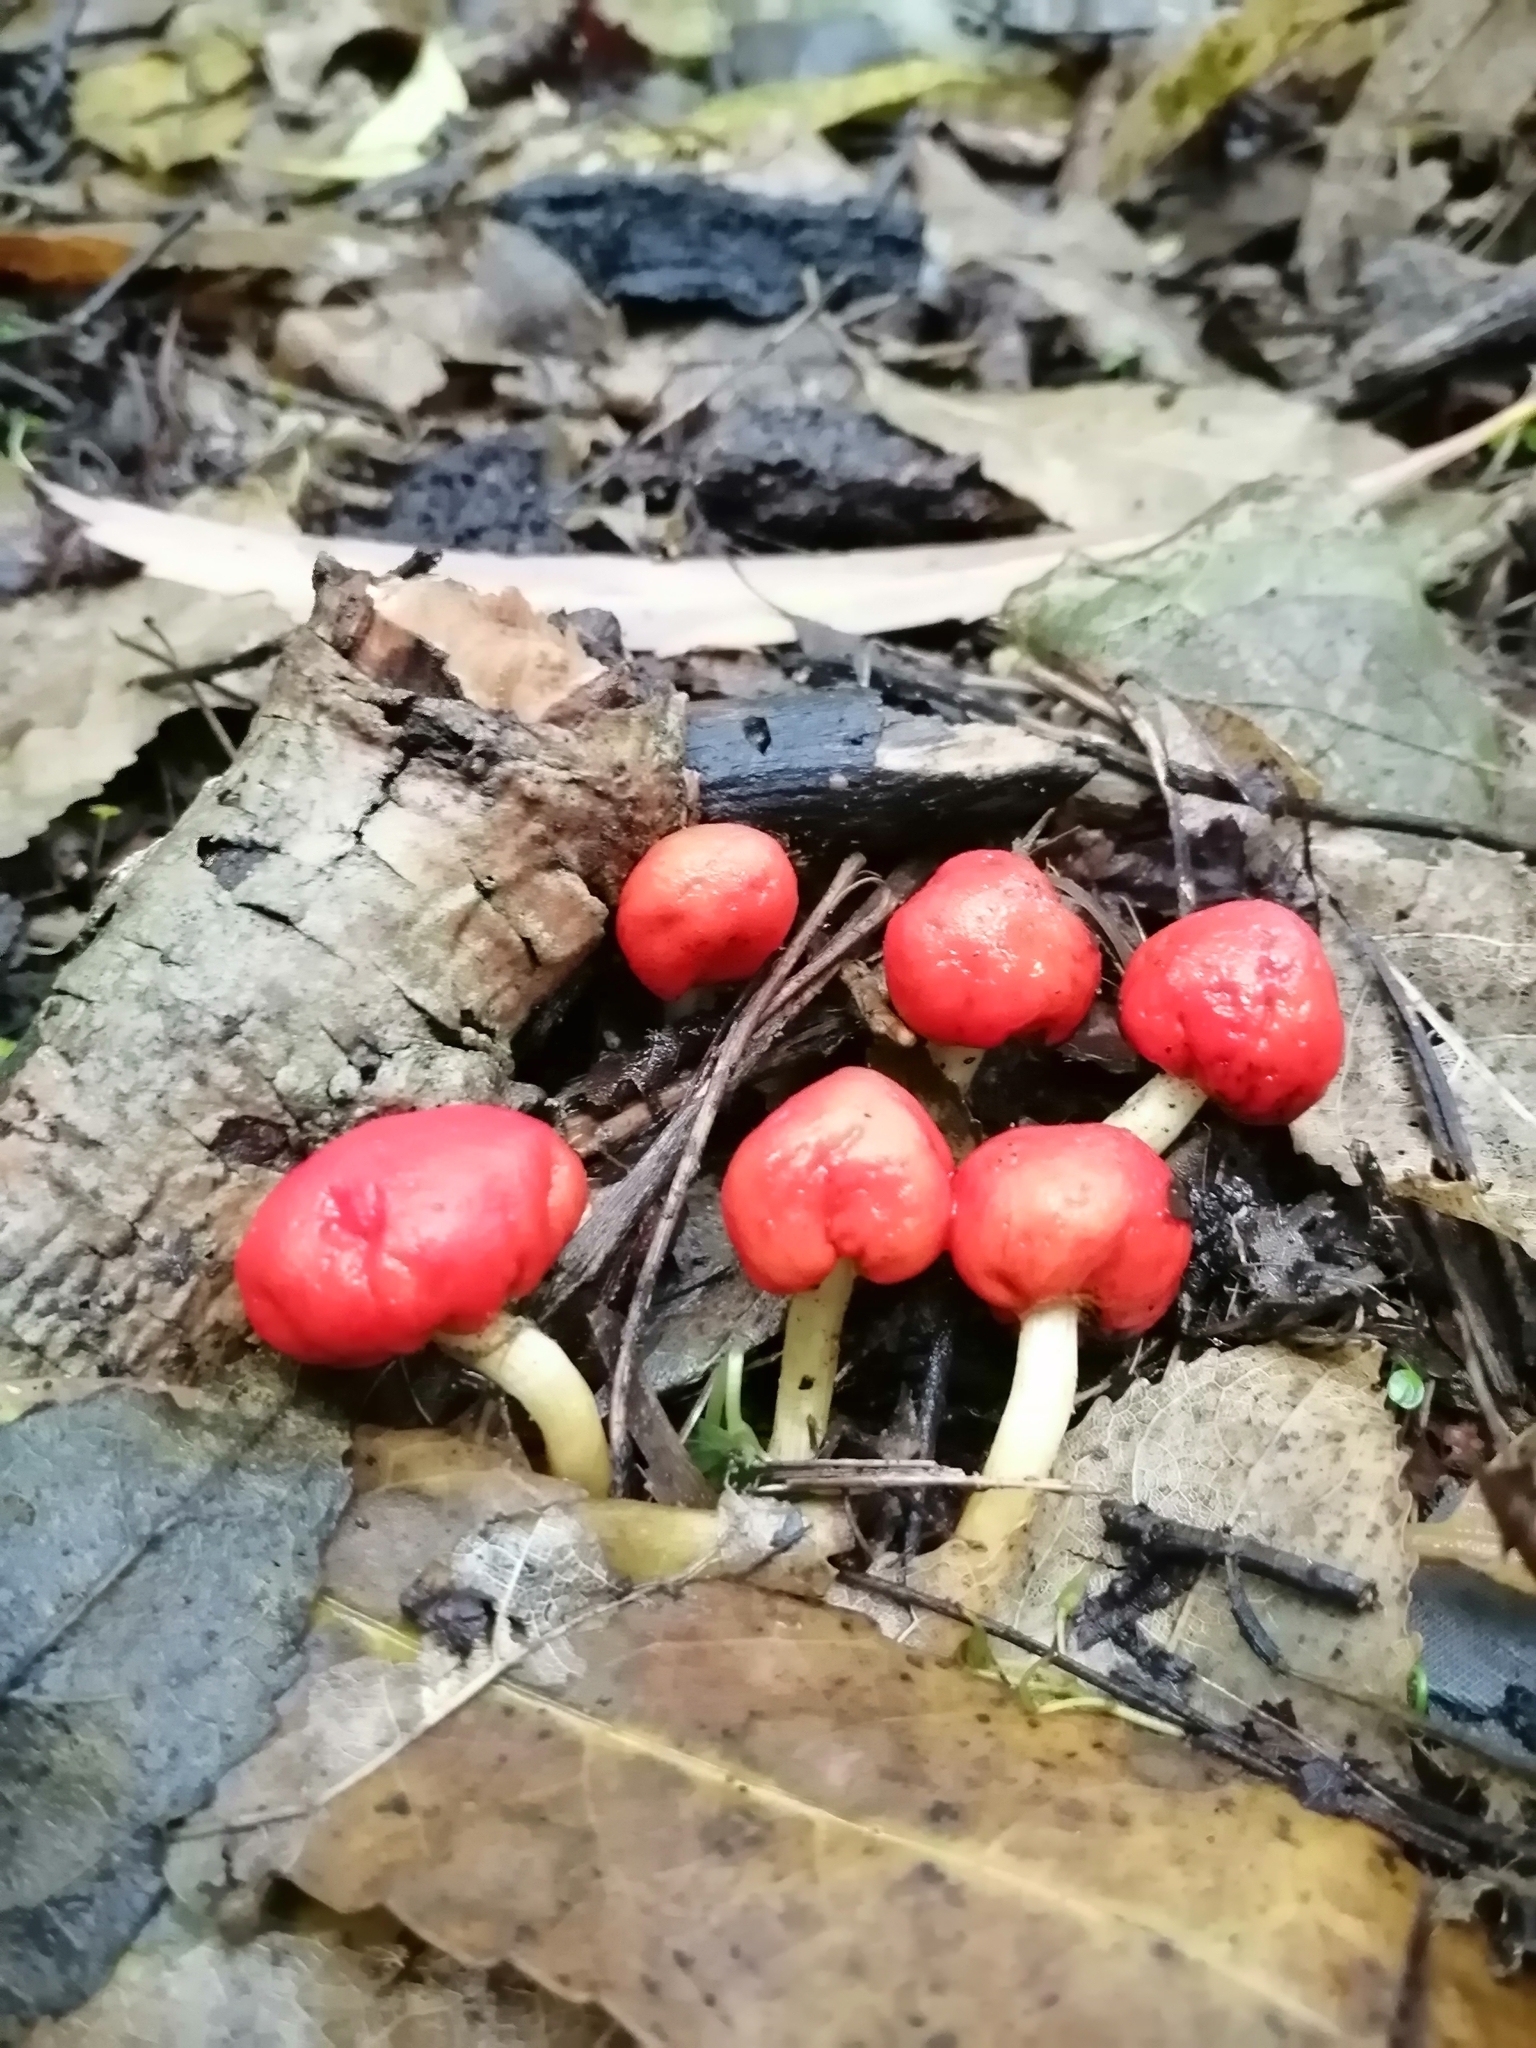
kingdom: Fungi
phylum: Basidiomycota
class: Agaricomycetes
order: Agaricales
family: Strophariaceae
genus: Leratiomyces
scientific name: Leratiomyces erythrocephalus
